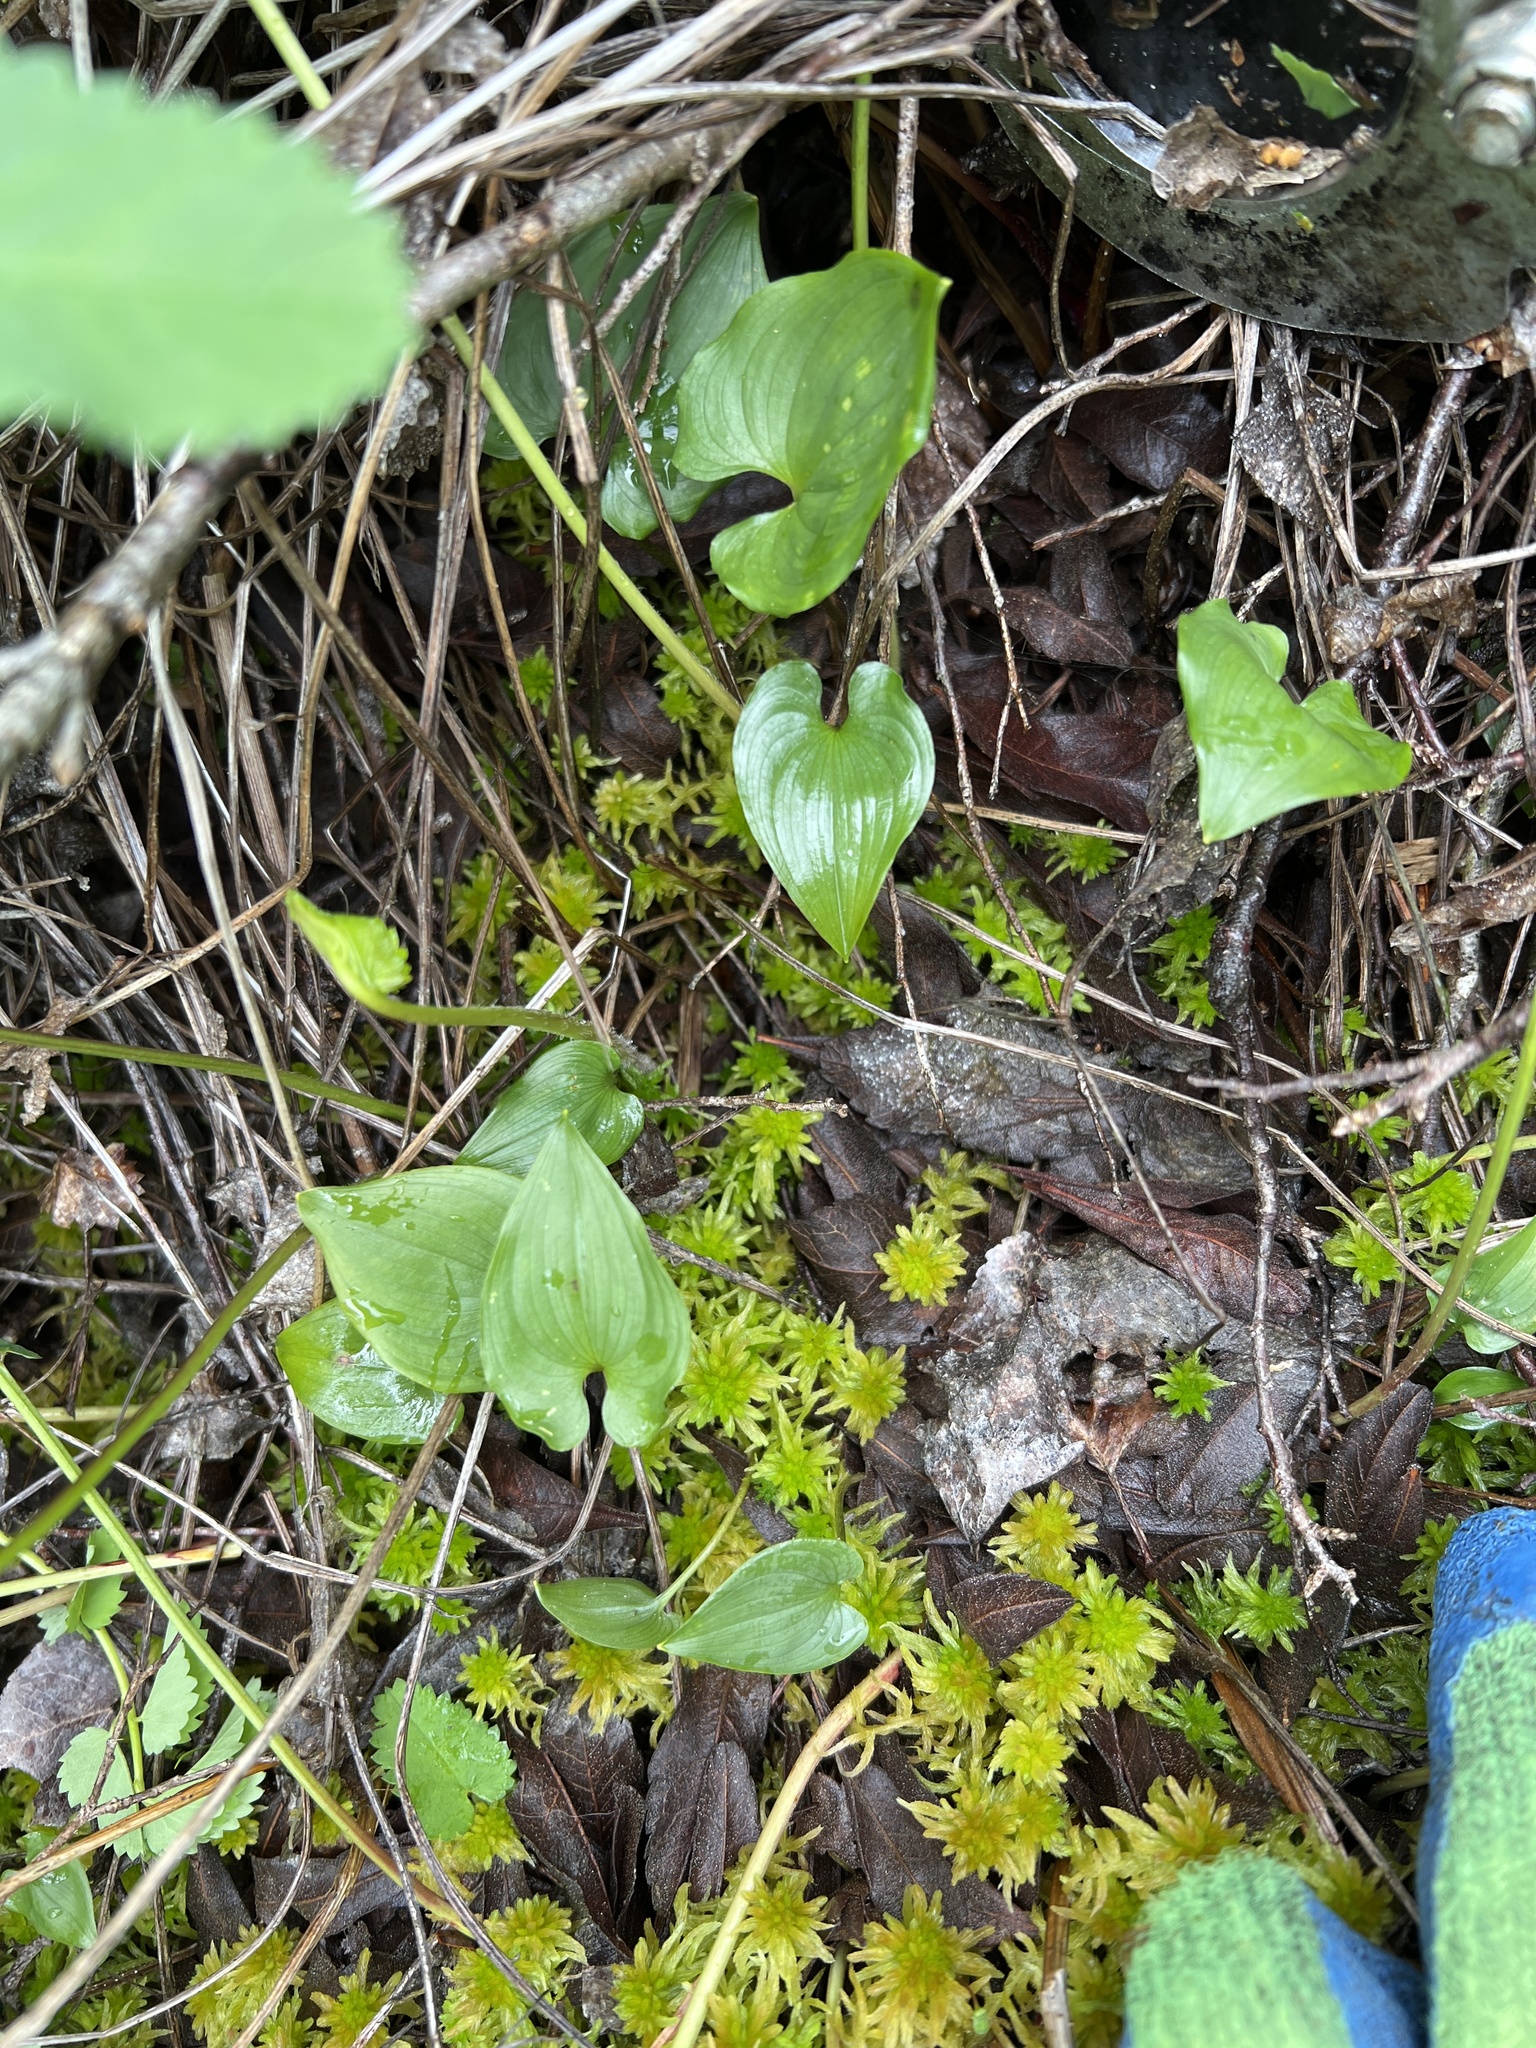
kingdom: Plantae
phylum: Tracheophyta
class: Liliopsida
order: Asparagales
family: Asparagaceae
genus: Maianthemum
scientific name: Maianthemum dilatatum
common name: False lily-of-the-valley
